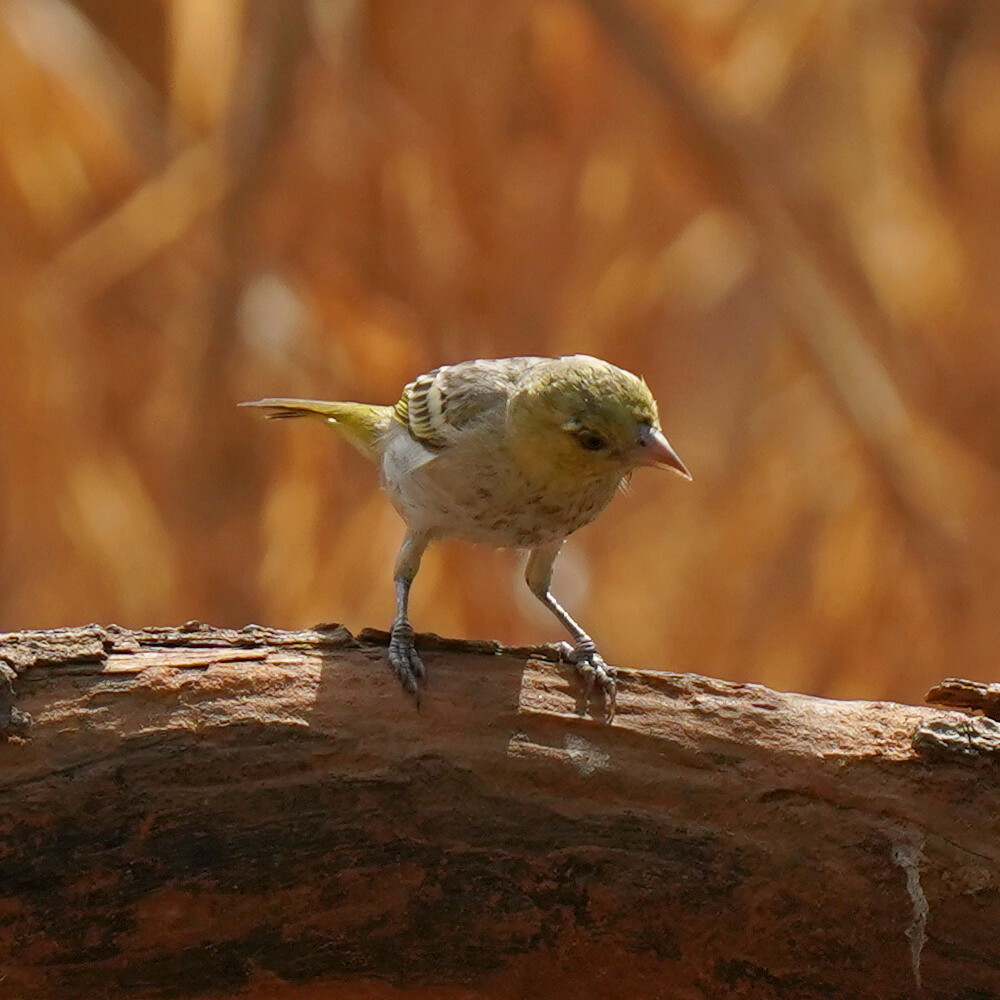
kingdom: Animalia
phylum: Chordata
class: Aves
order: Passeriformes
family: Ploceidae
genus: Ploceus
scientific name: Ploceus luteolus
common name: Little weaver
